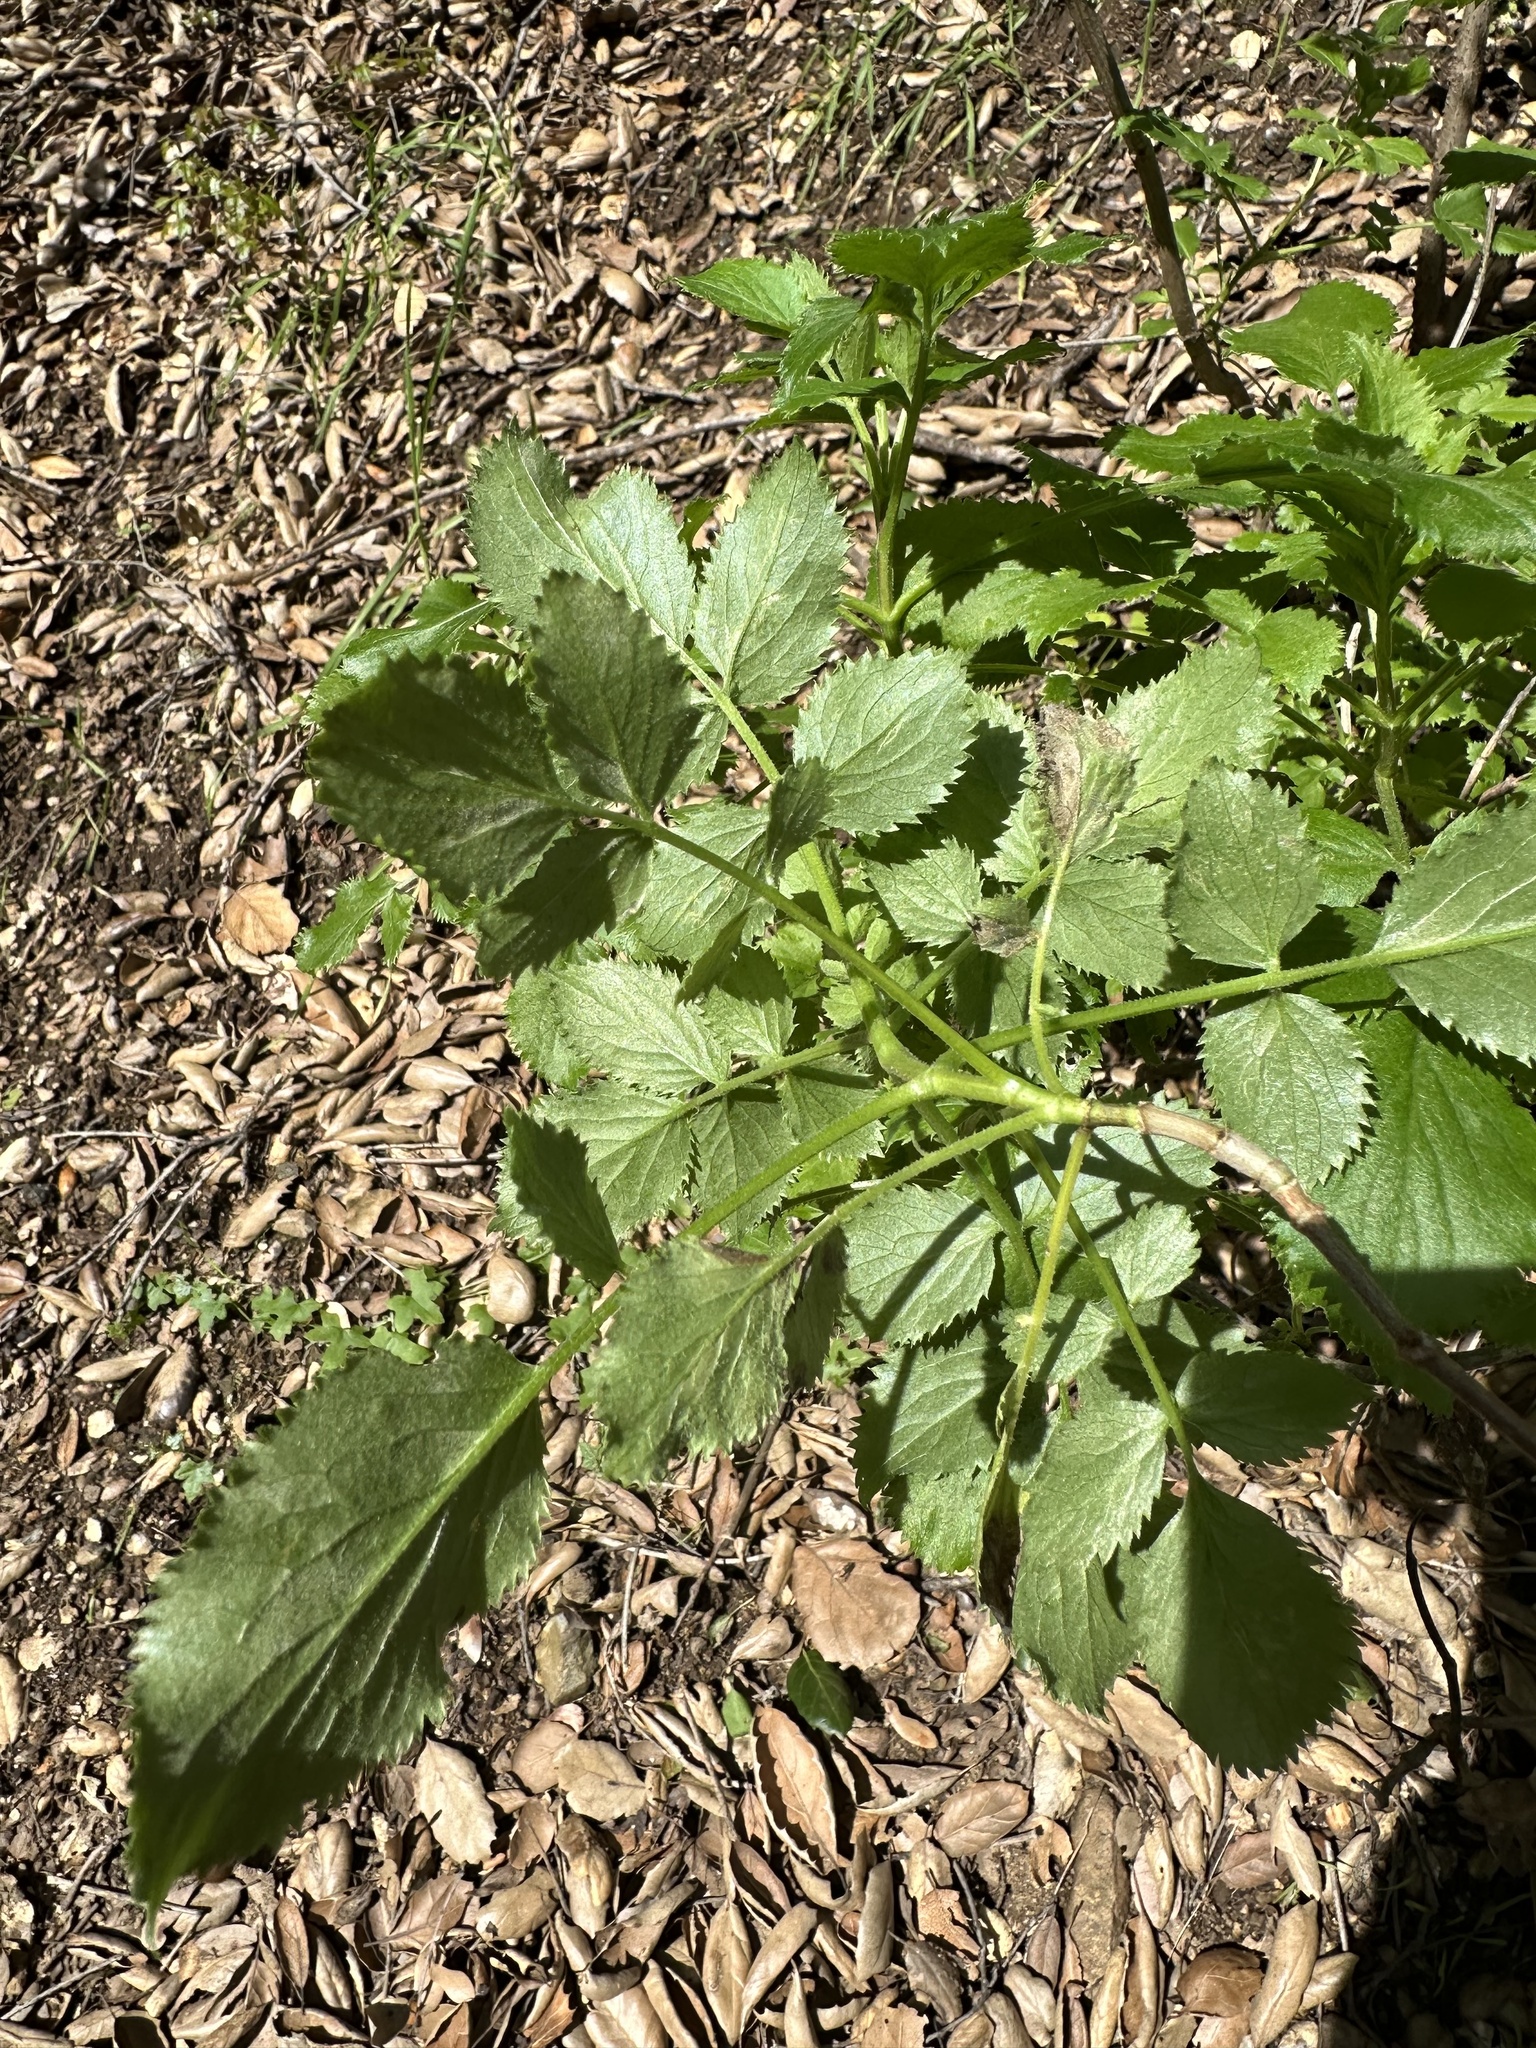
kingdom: Plantae
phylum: Tracheophyta
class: Magnoliopsida
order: Dipsacales
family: Viburnaceae
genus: Sambucus
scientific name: Sambucus cerulea
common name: Blue elder
